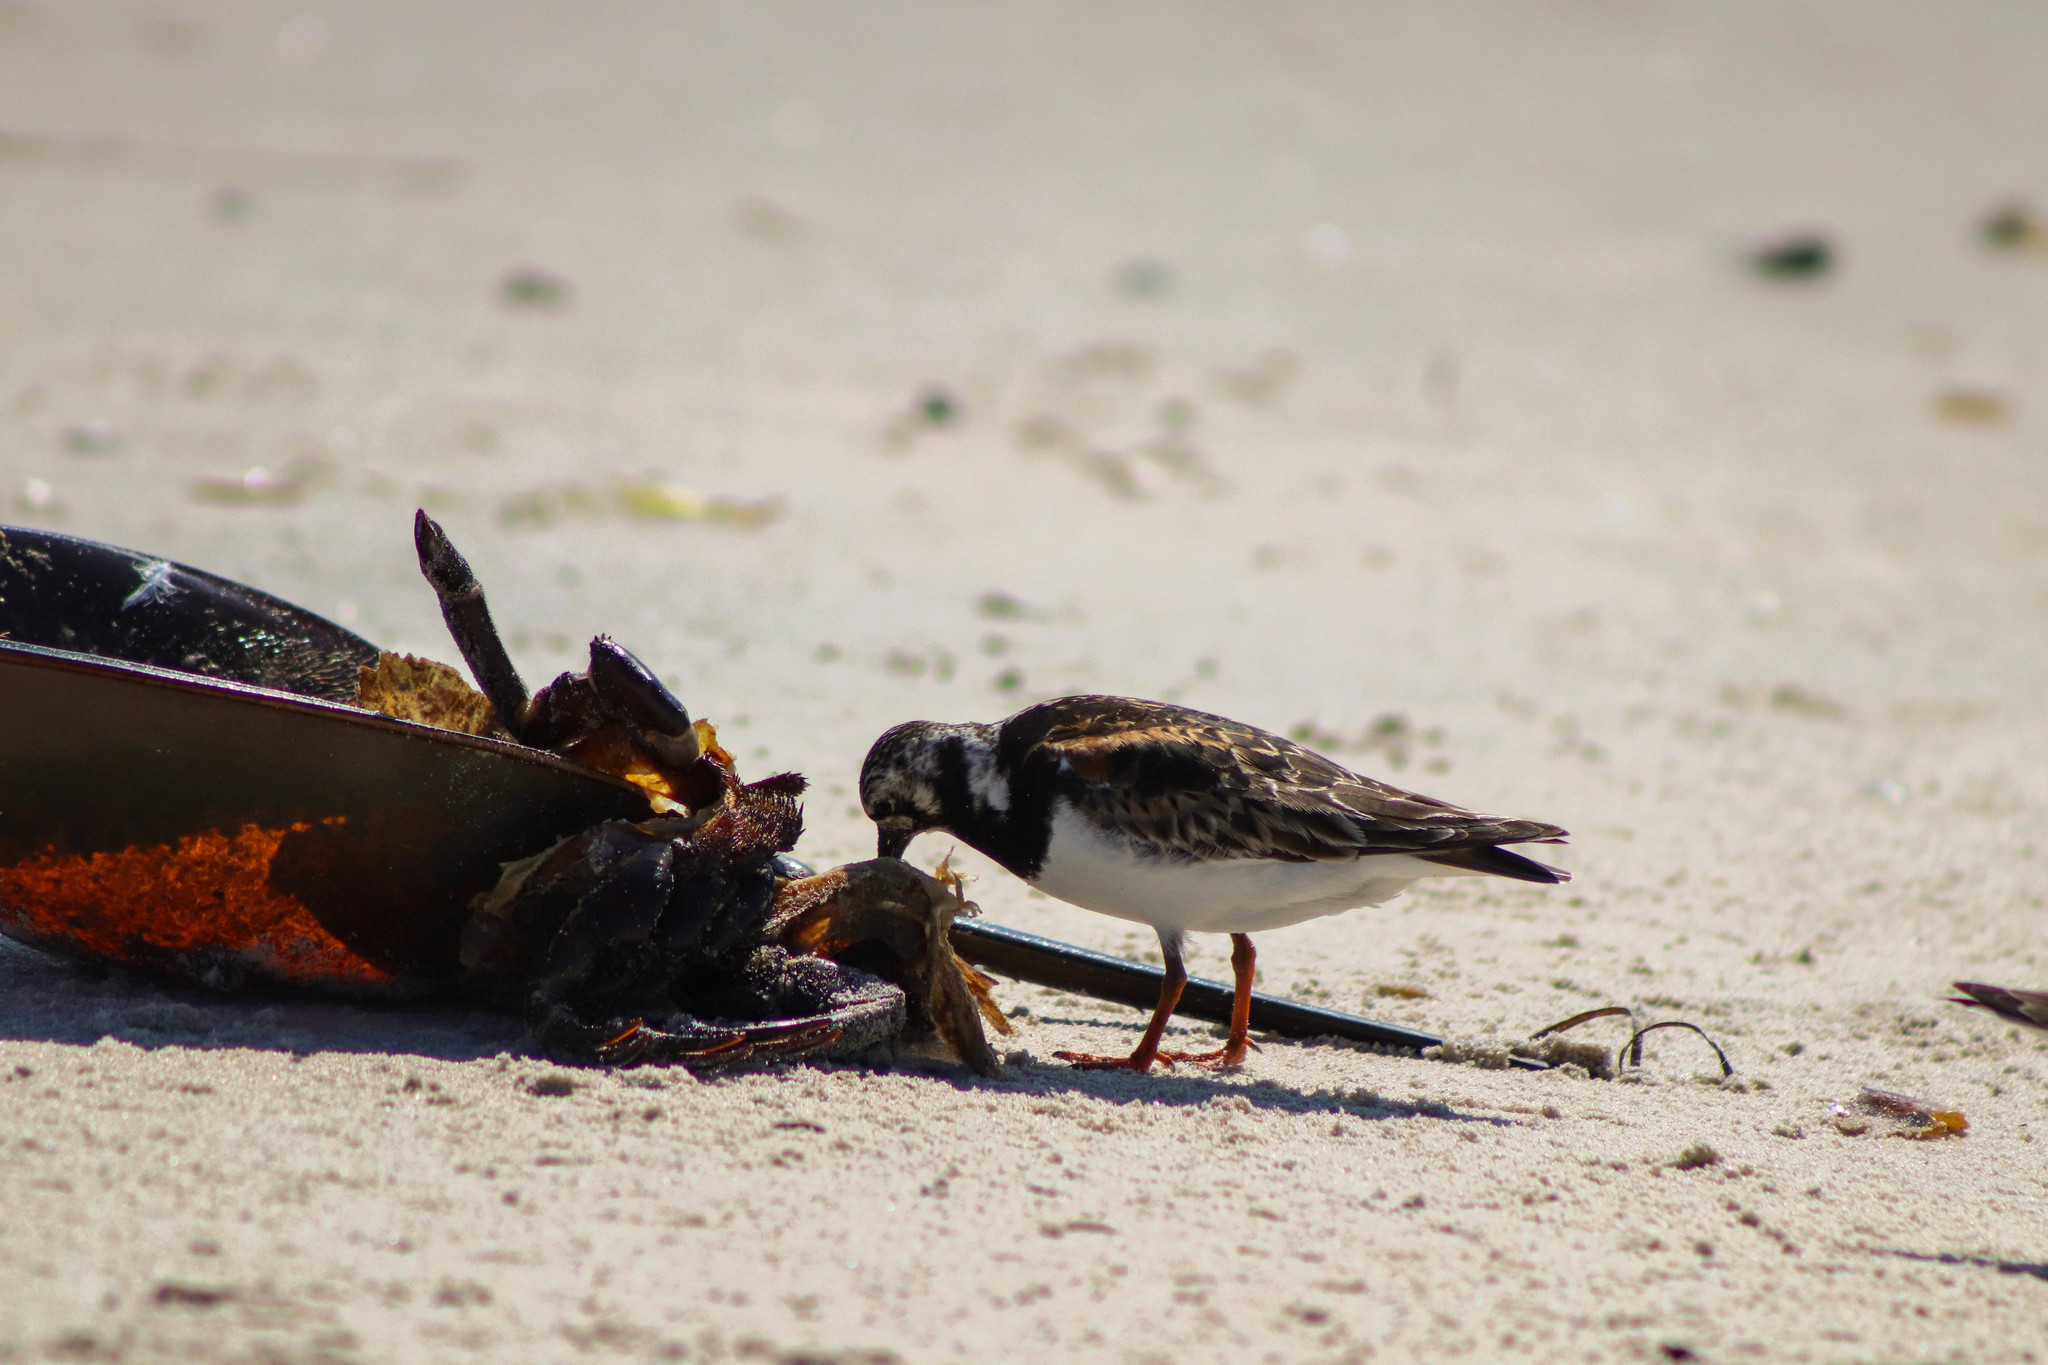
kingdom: Animalia
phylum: Chordata
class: Aves
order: Charadriiformes
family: Scolopacidae
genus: Arenaria
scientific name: Arenaria interpres
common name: Ruddy turnstone
